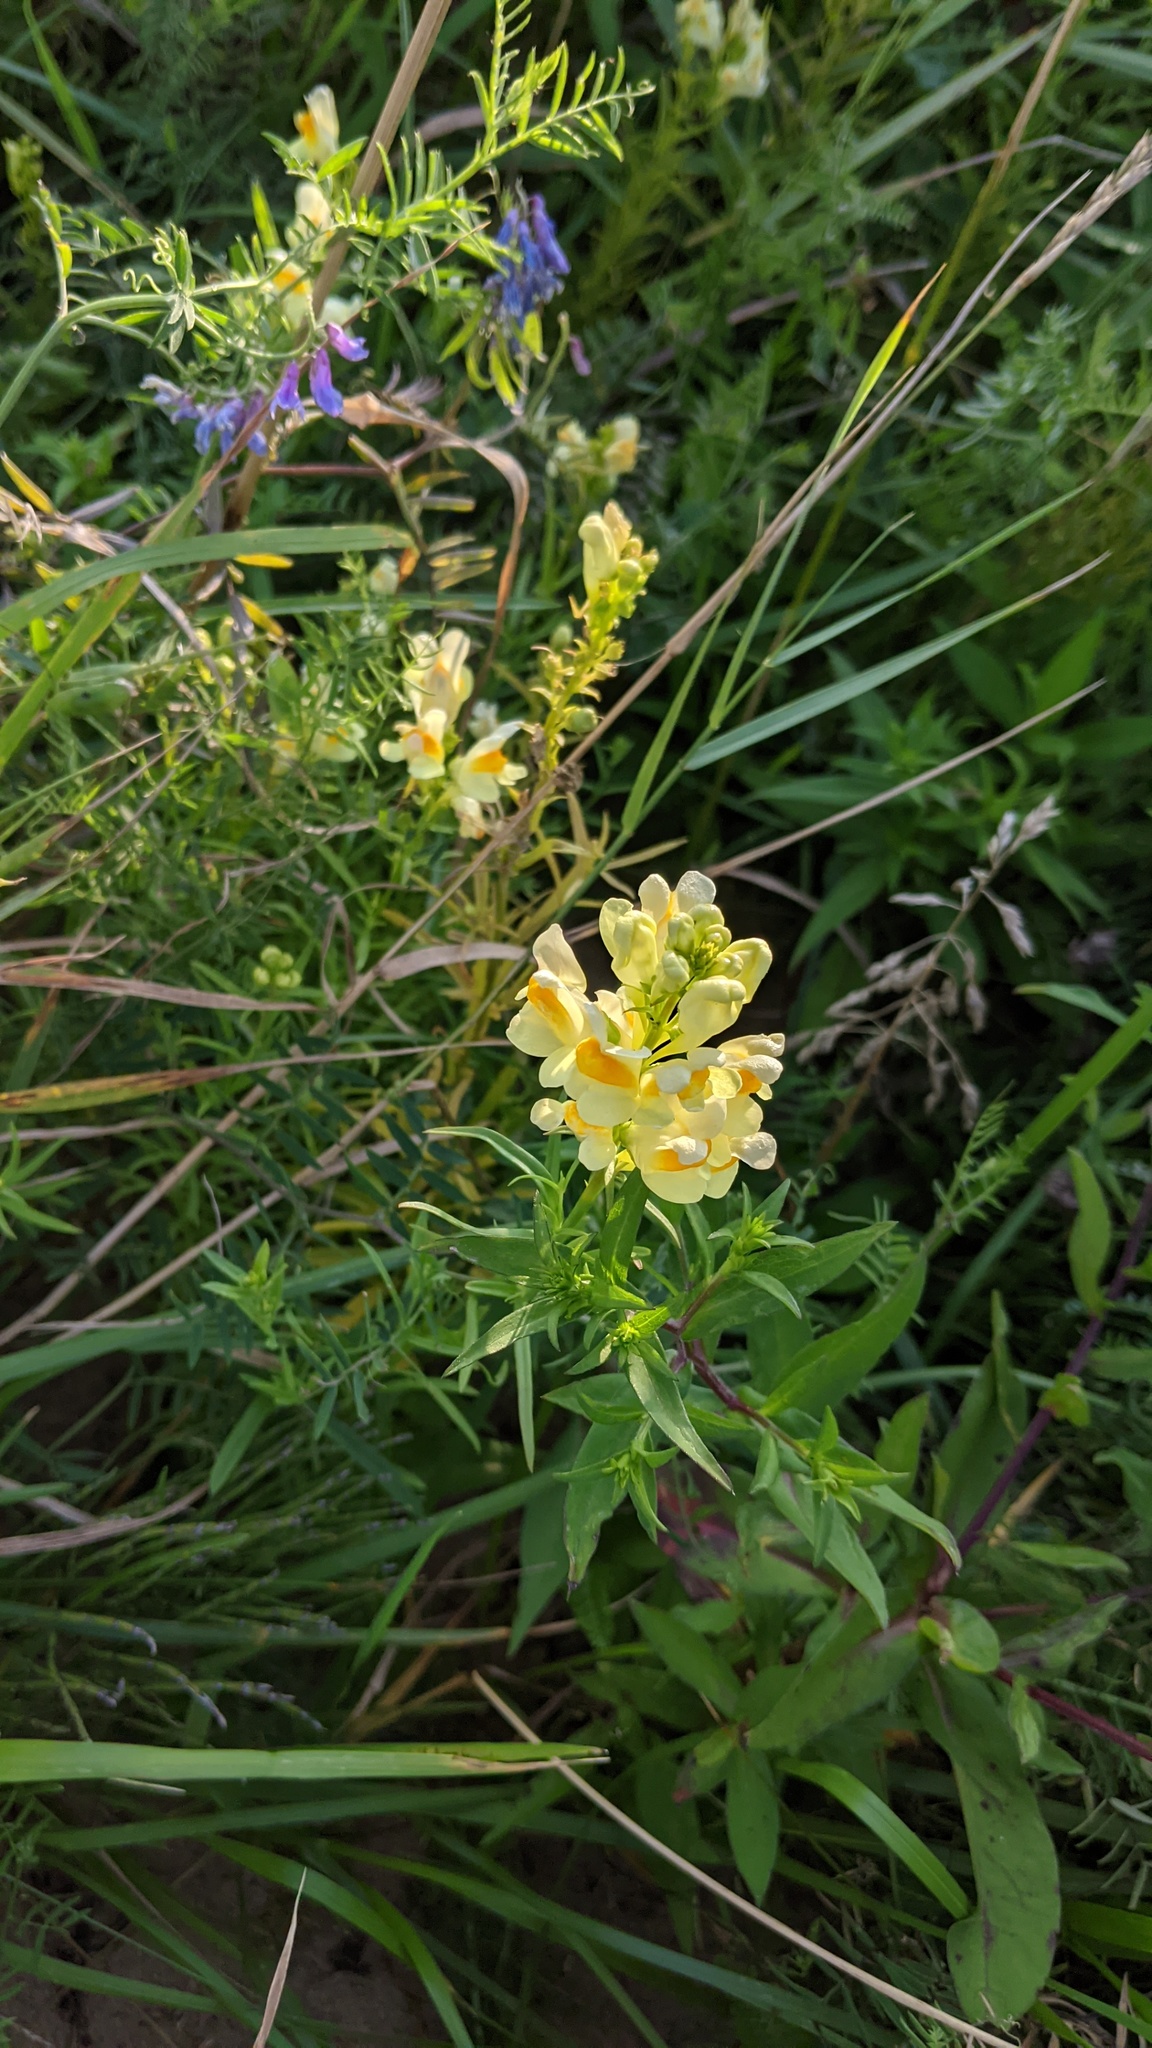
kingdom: Plantae
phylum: Tracheophyta
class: Magnoliopsida
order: Lamiales
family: Plantaginaceae
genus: Linaria
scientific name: Linaria vulgaris
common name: Butter and eggs
